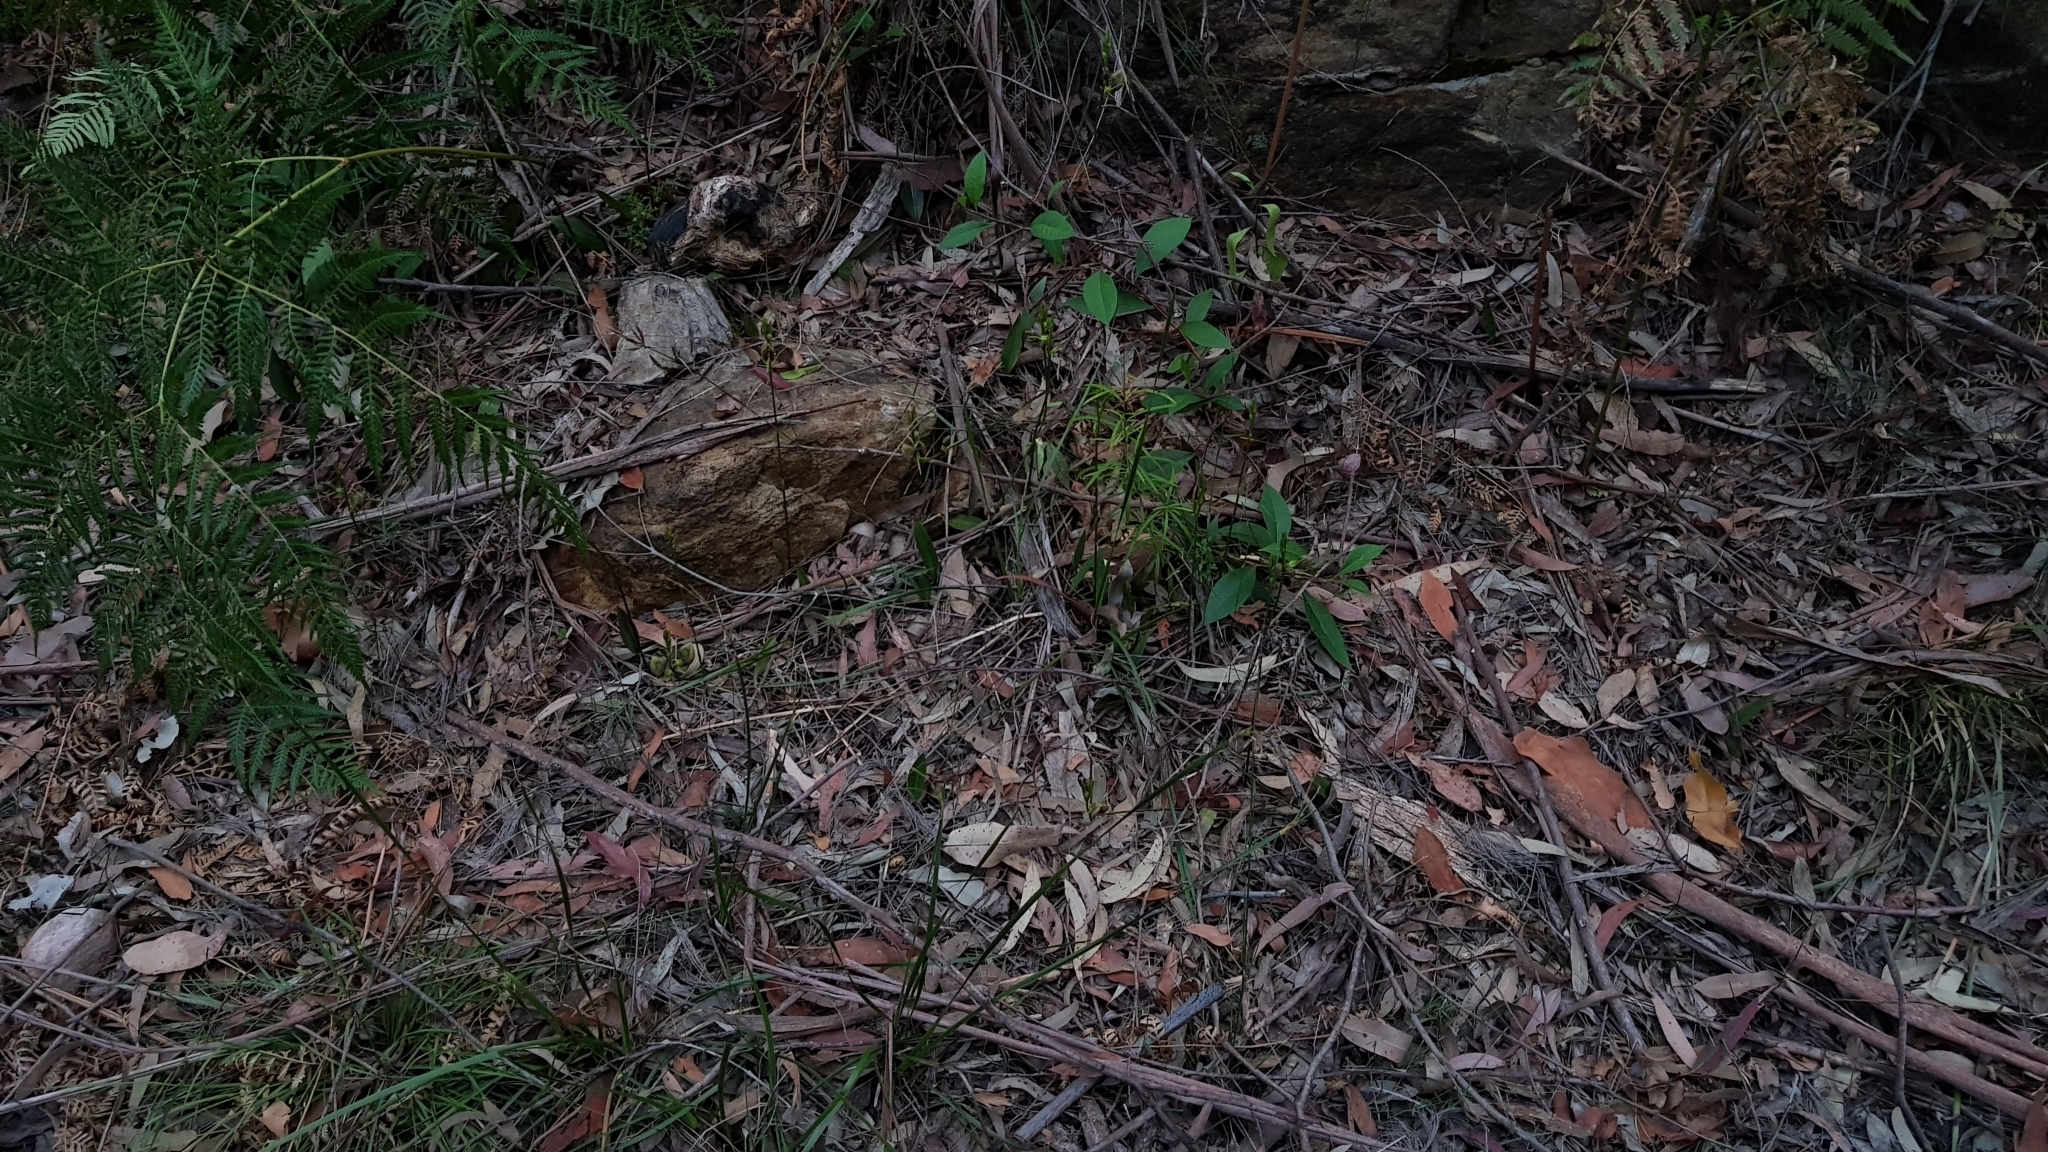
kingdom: Plantae
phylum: Tracheophyta
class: Liliopsida
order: Asparagales
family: Orchidaceae
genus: Cryptostylis
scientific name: Cryptostylis erecta
